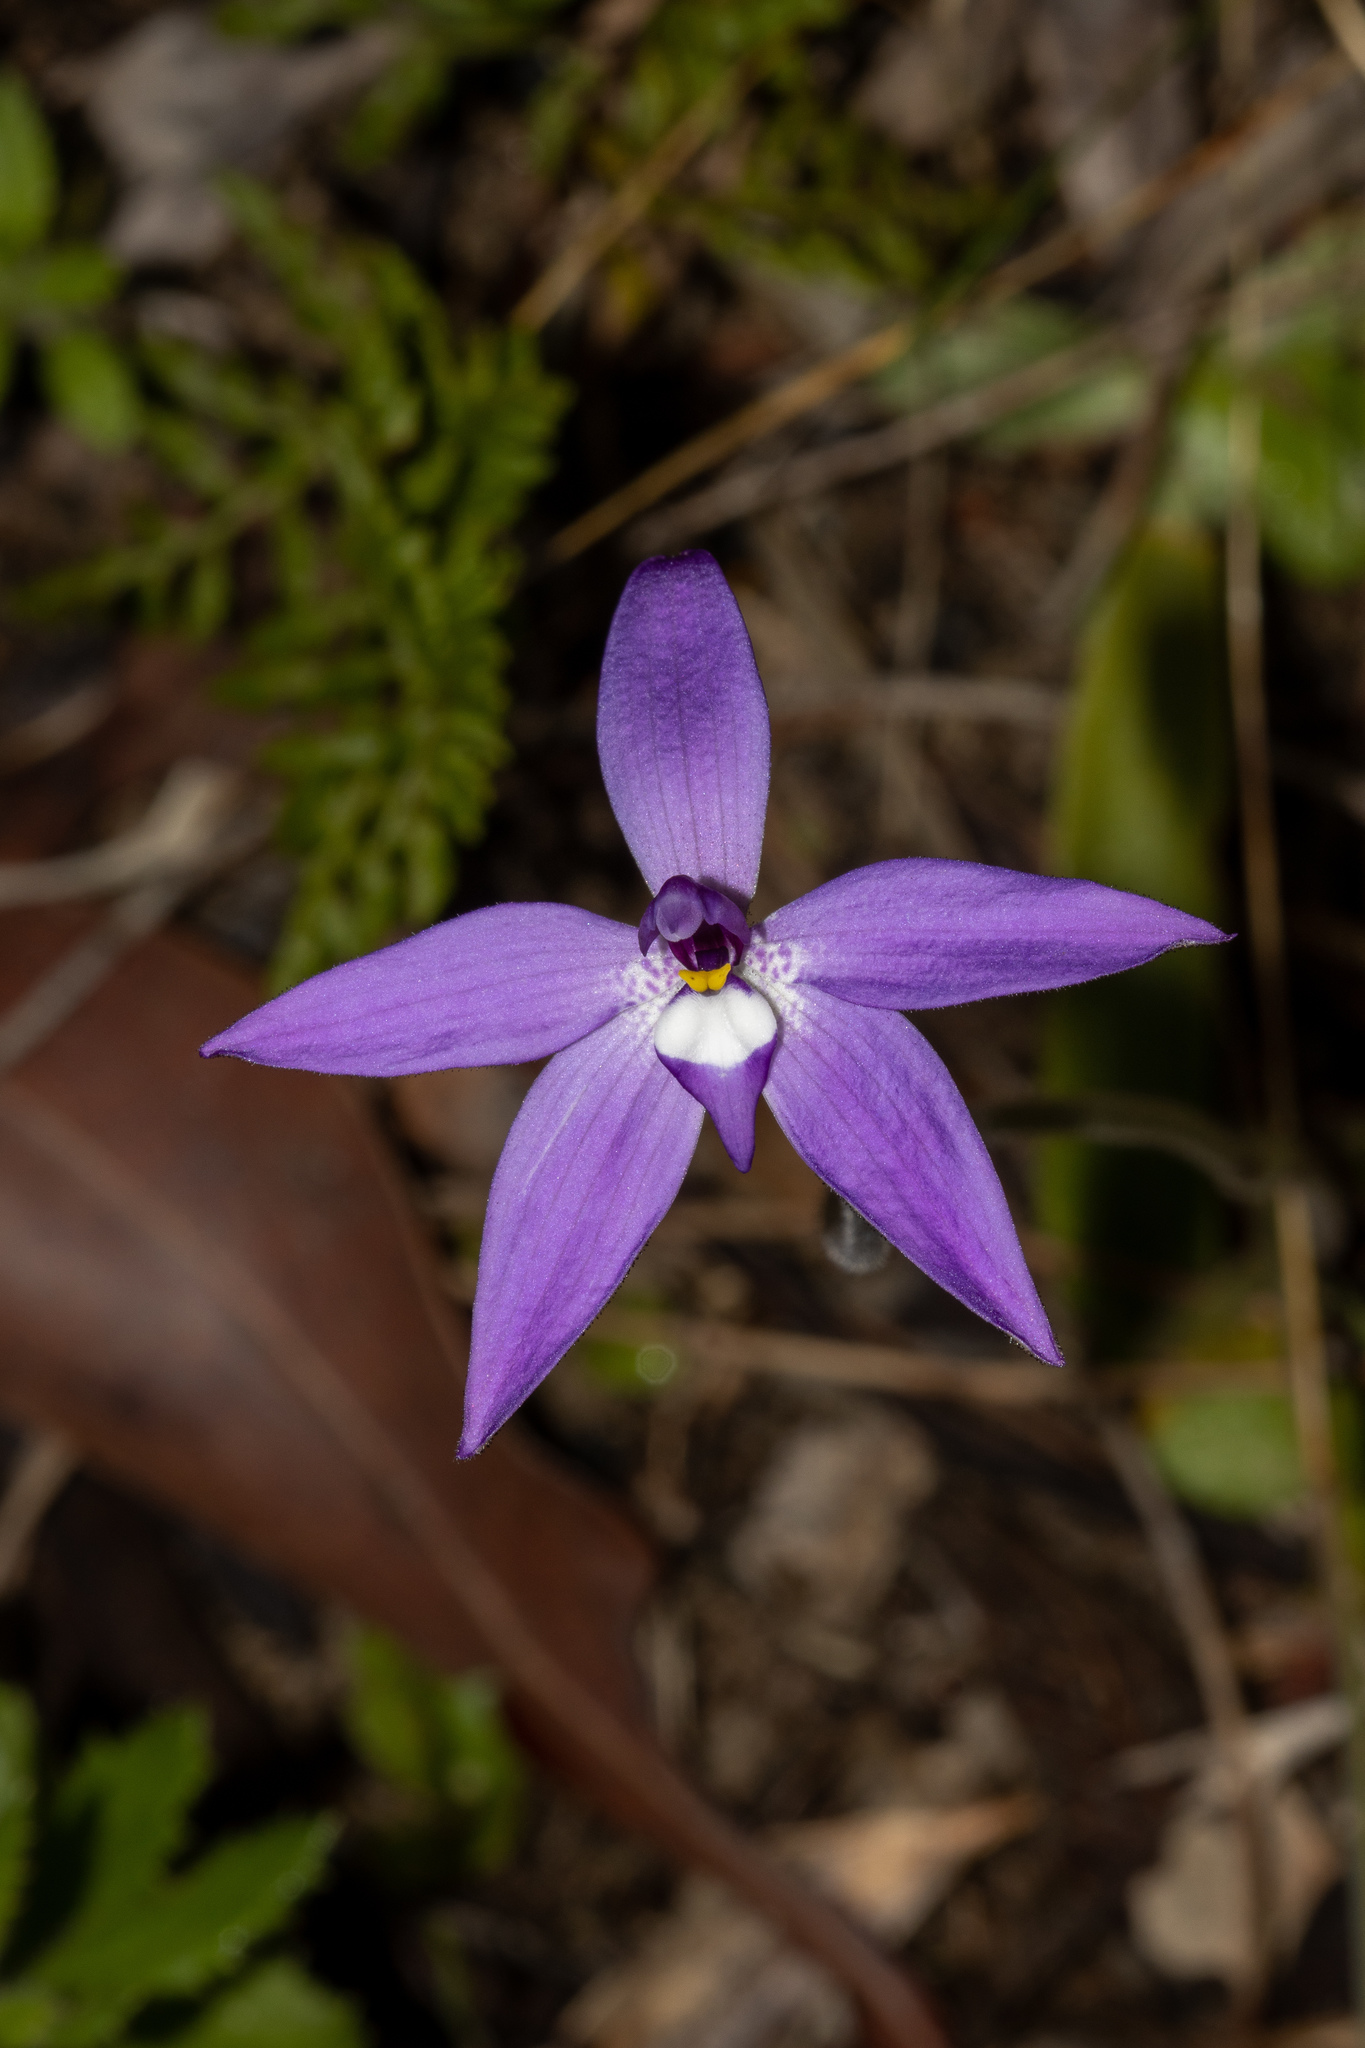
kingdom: Plantae
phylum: Tracheophyta
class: Liliopsida
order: Asparagales
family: Orchidaceae
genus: Caladenia
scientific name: Caladenia major
